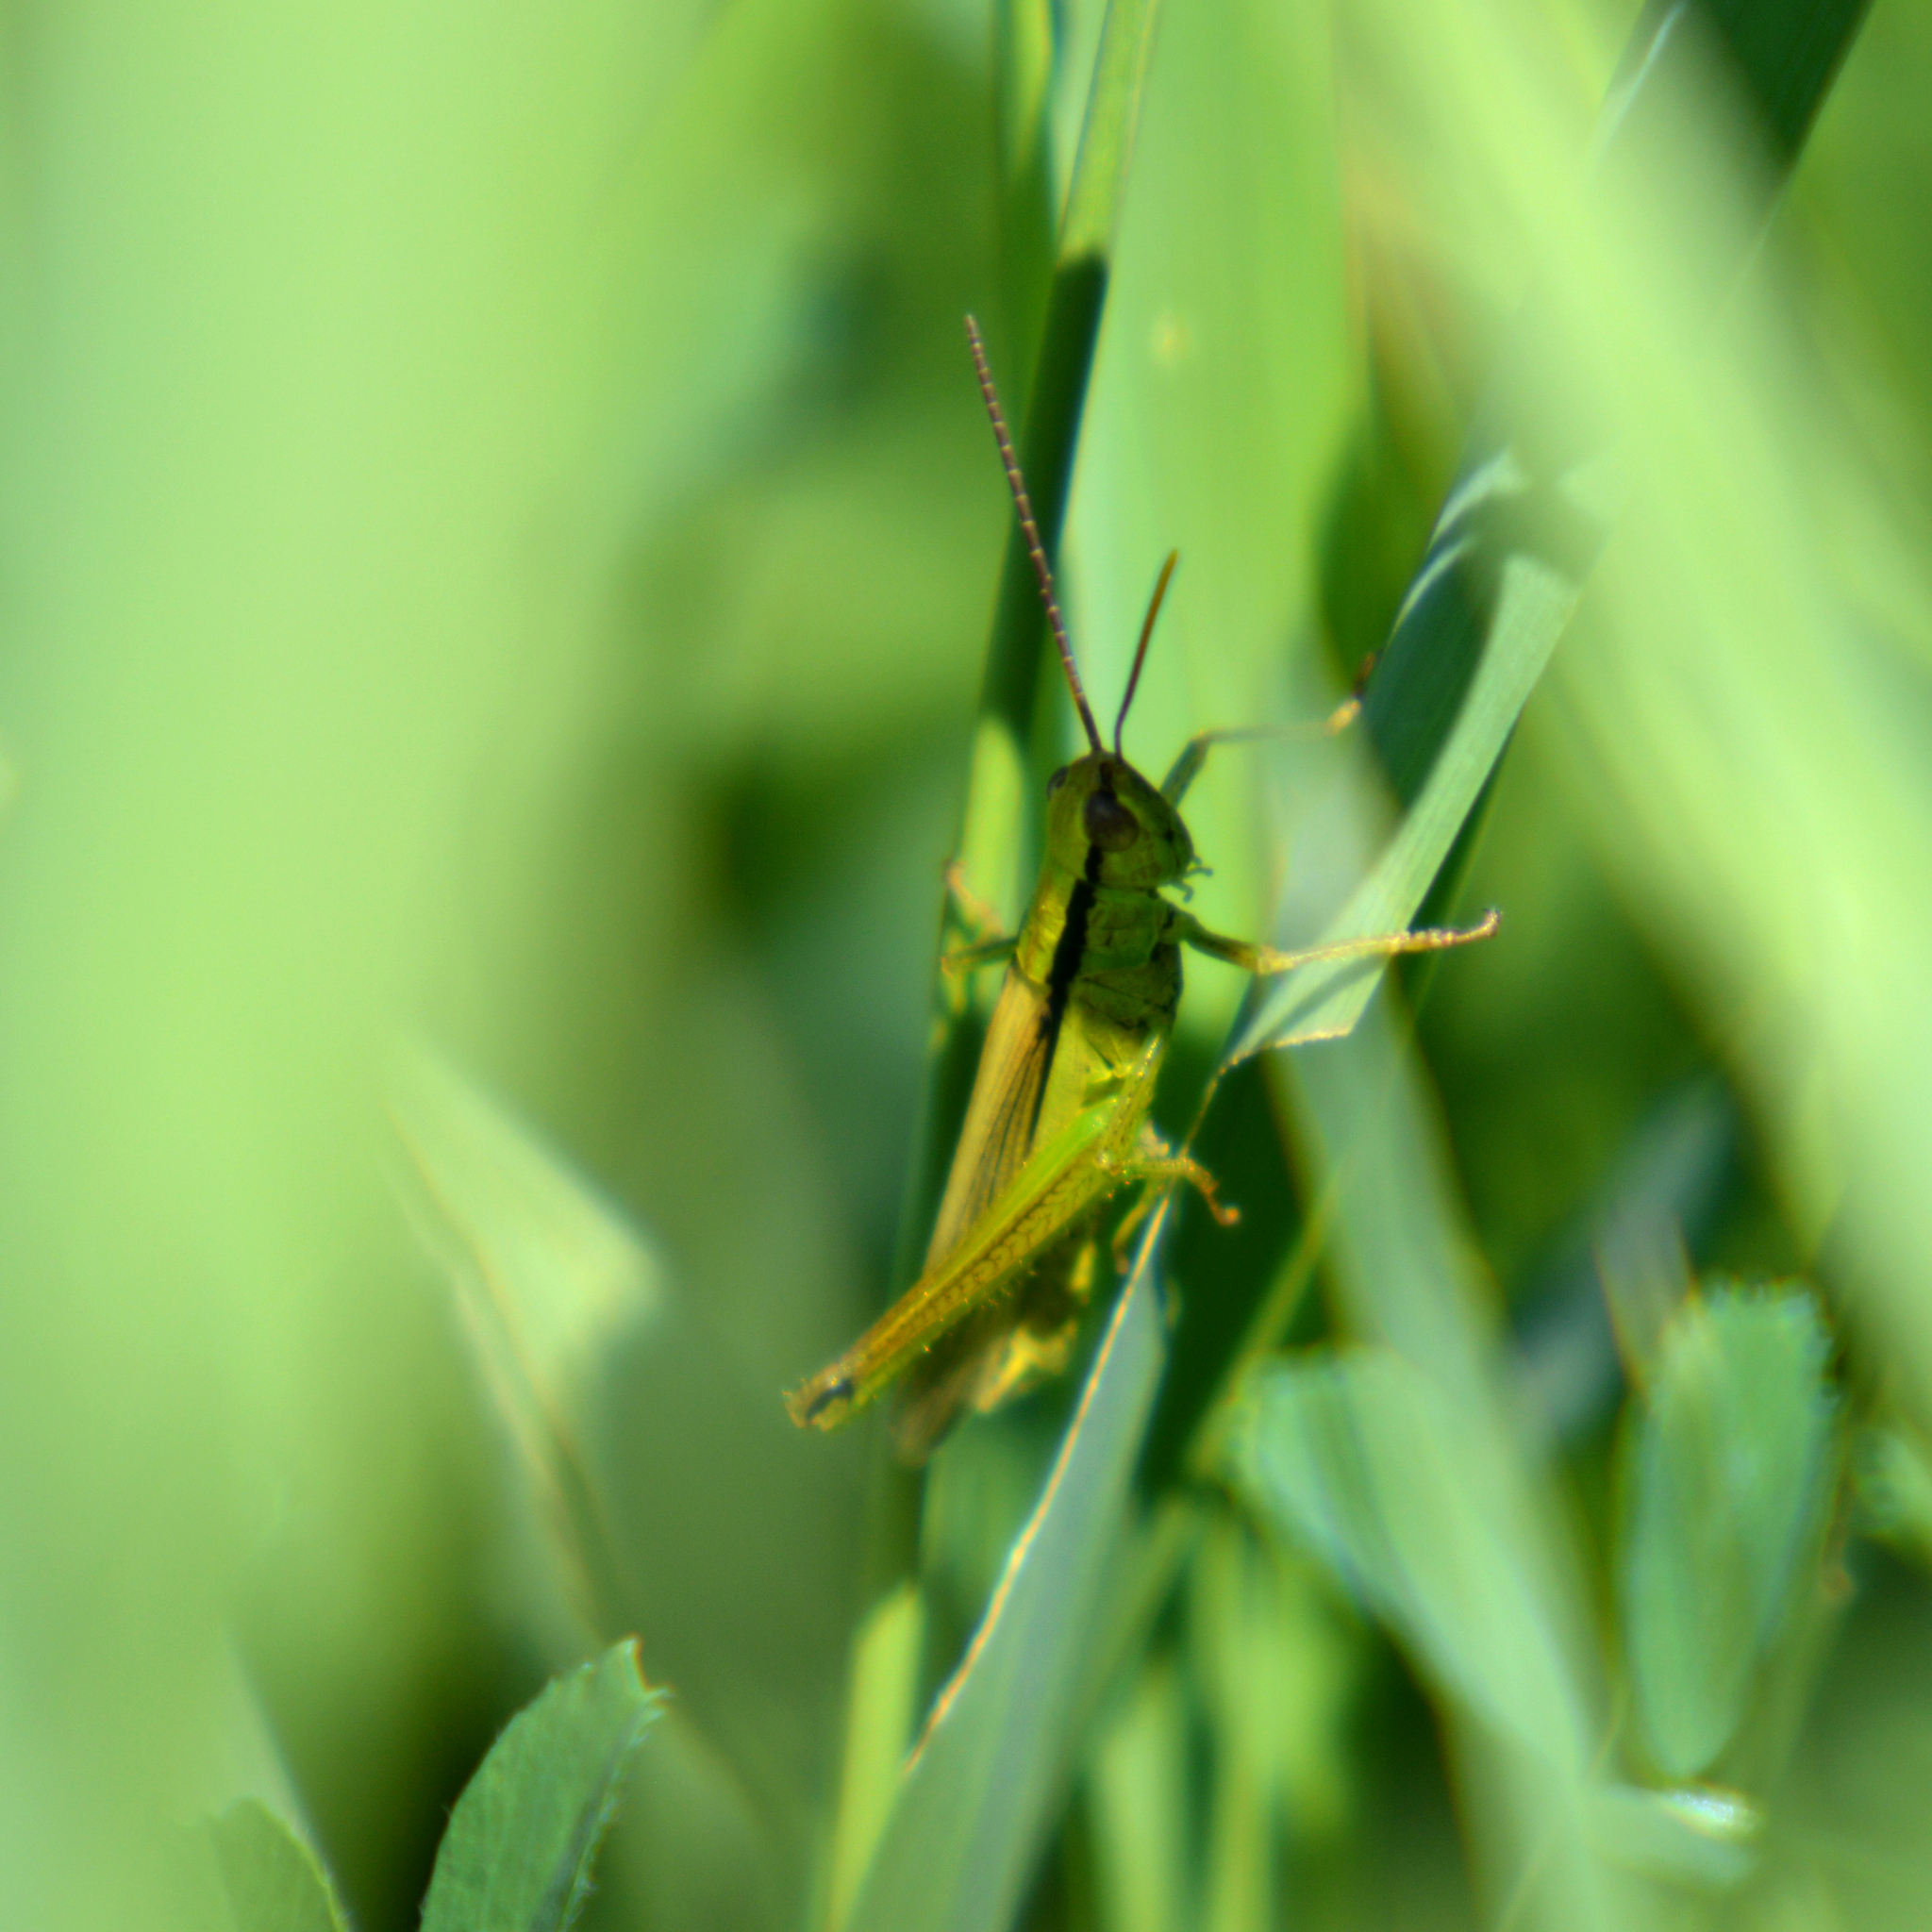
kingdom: Animalia
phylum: Arthropoda
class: Insecta
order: Orthoptera
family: Acrididae
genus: Mecostethus
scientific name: Mecostethus parapleurus
